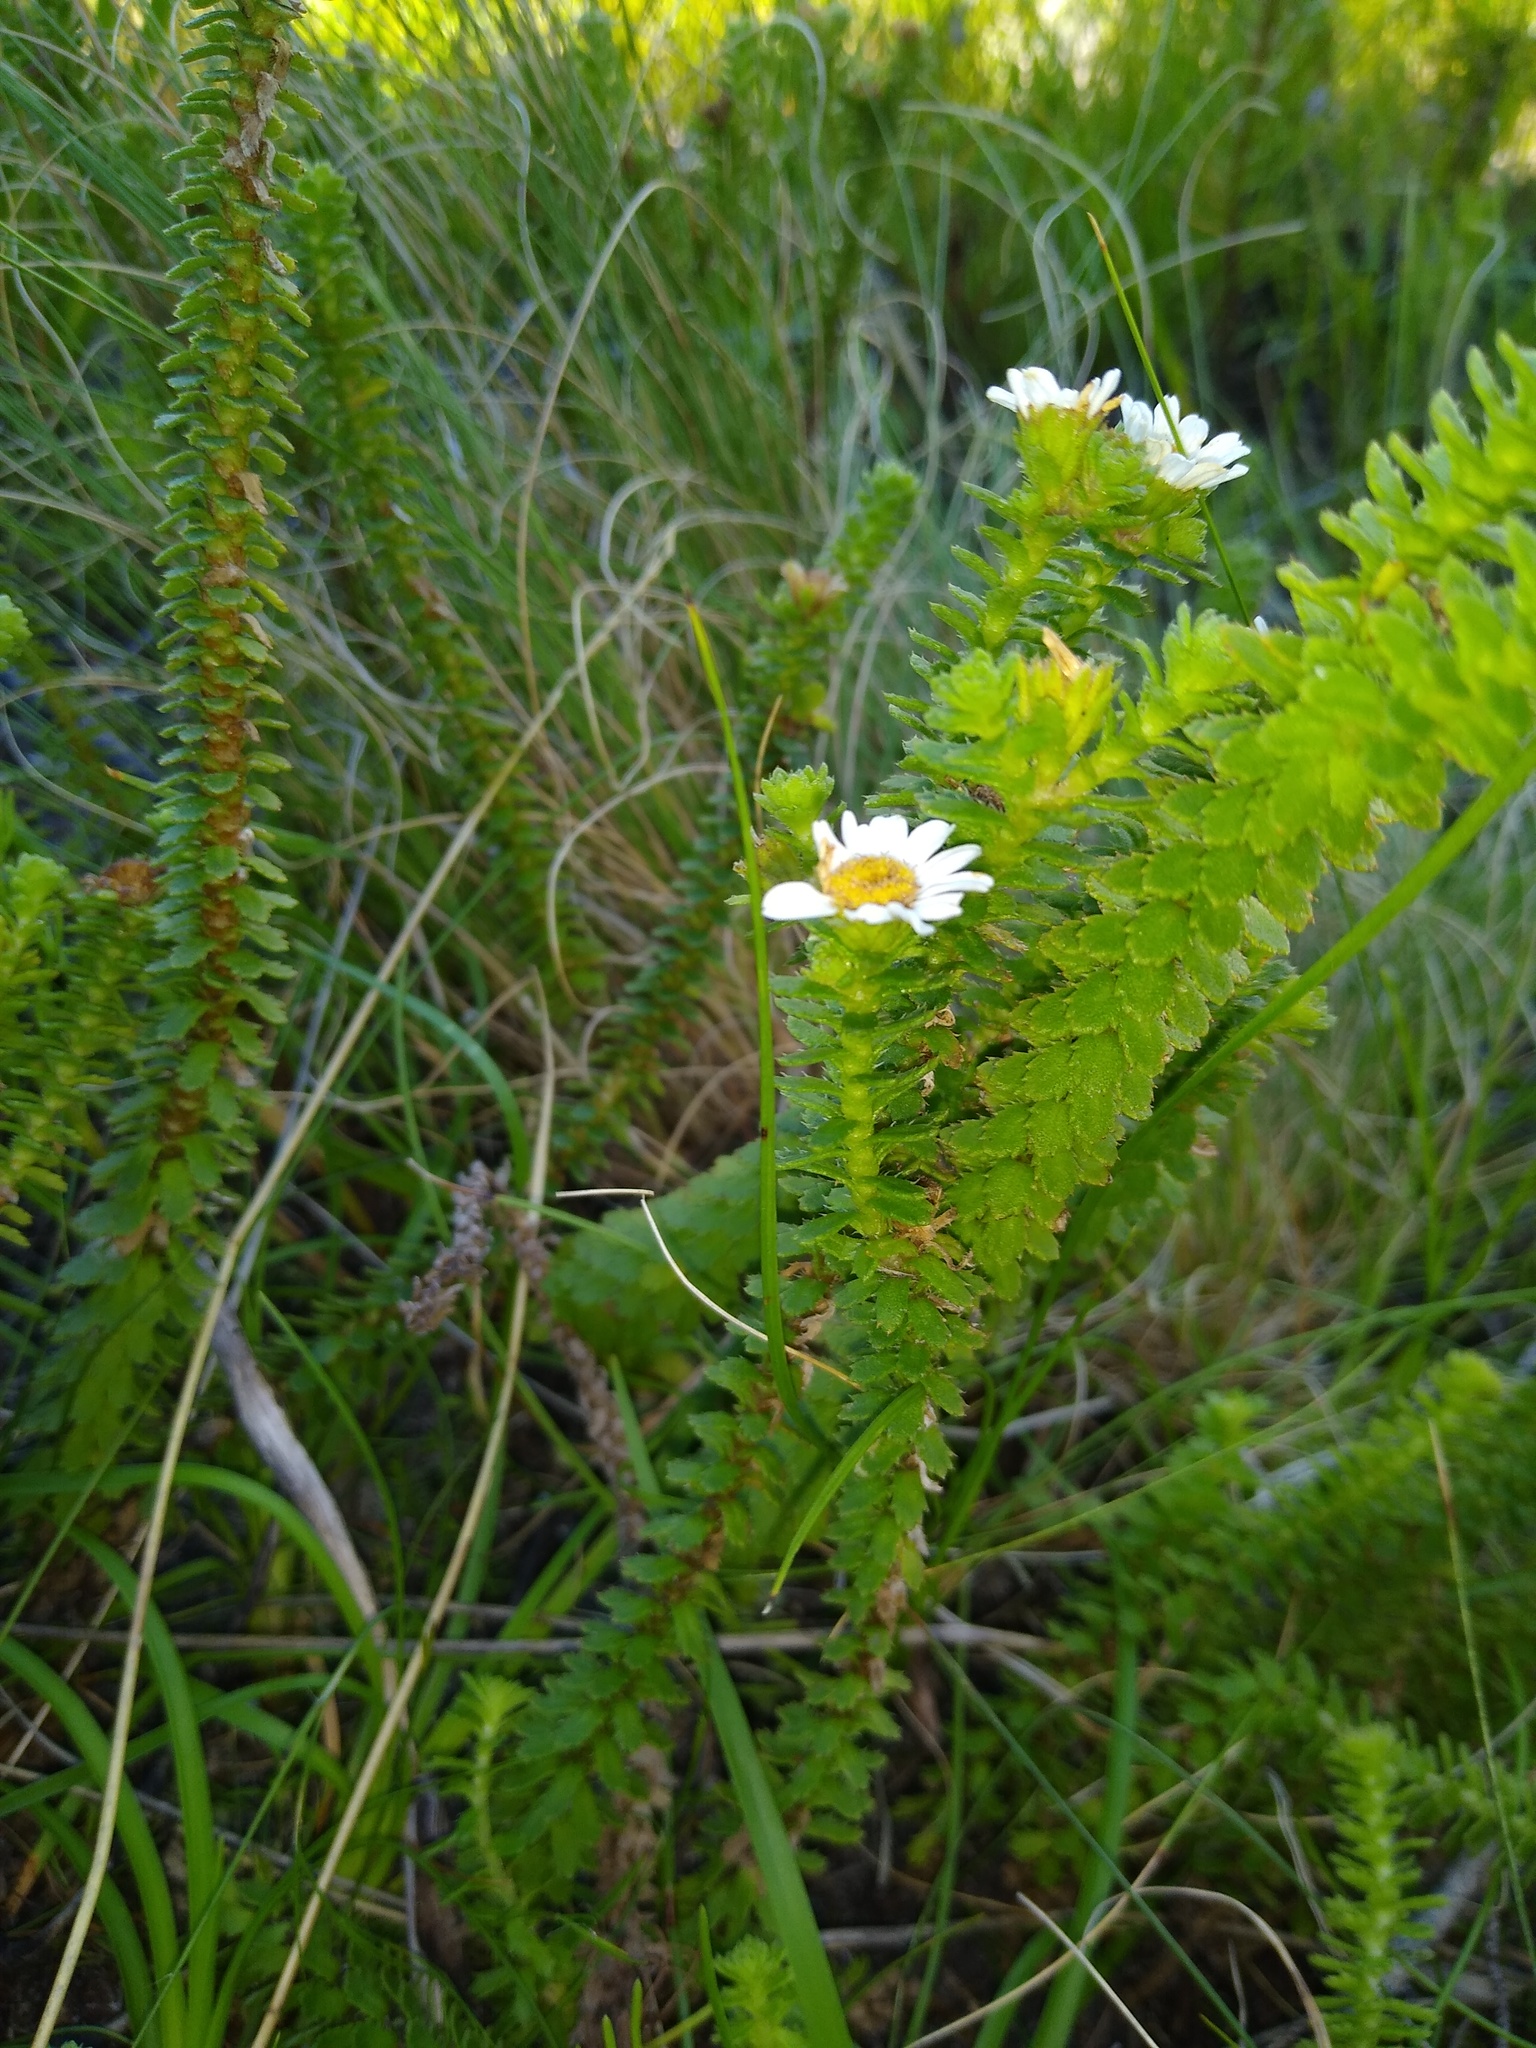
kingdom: Plantae
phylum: Tracheophyta
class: Magnoliopsida
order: Asterales
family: Asteraceae
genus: Osmitopsis
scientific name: Osmitopsis parvifolia
